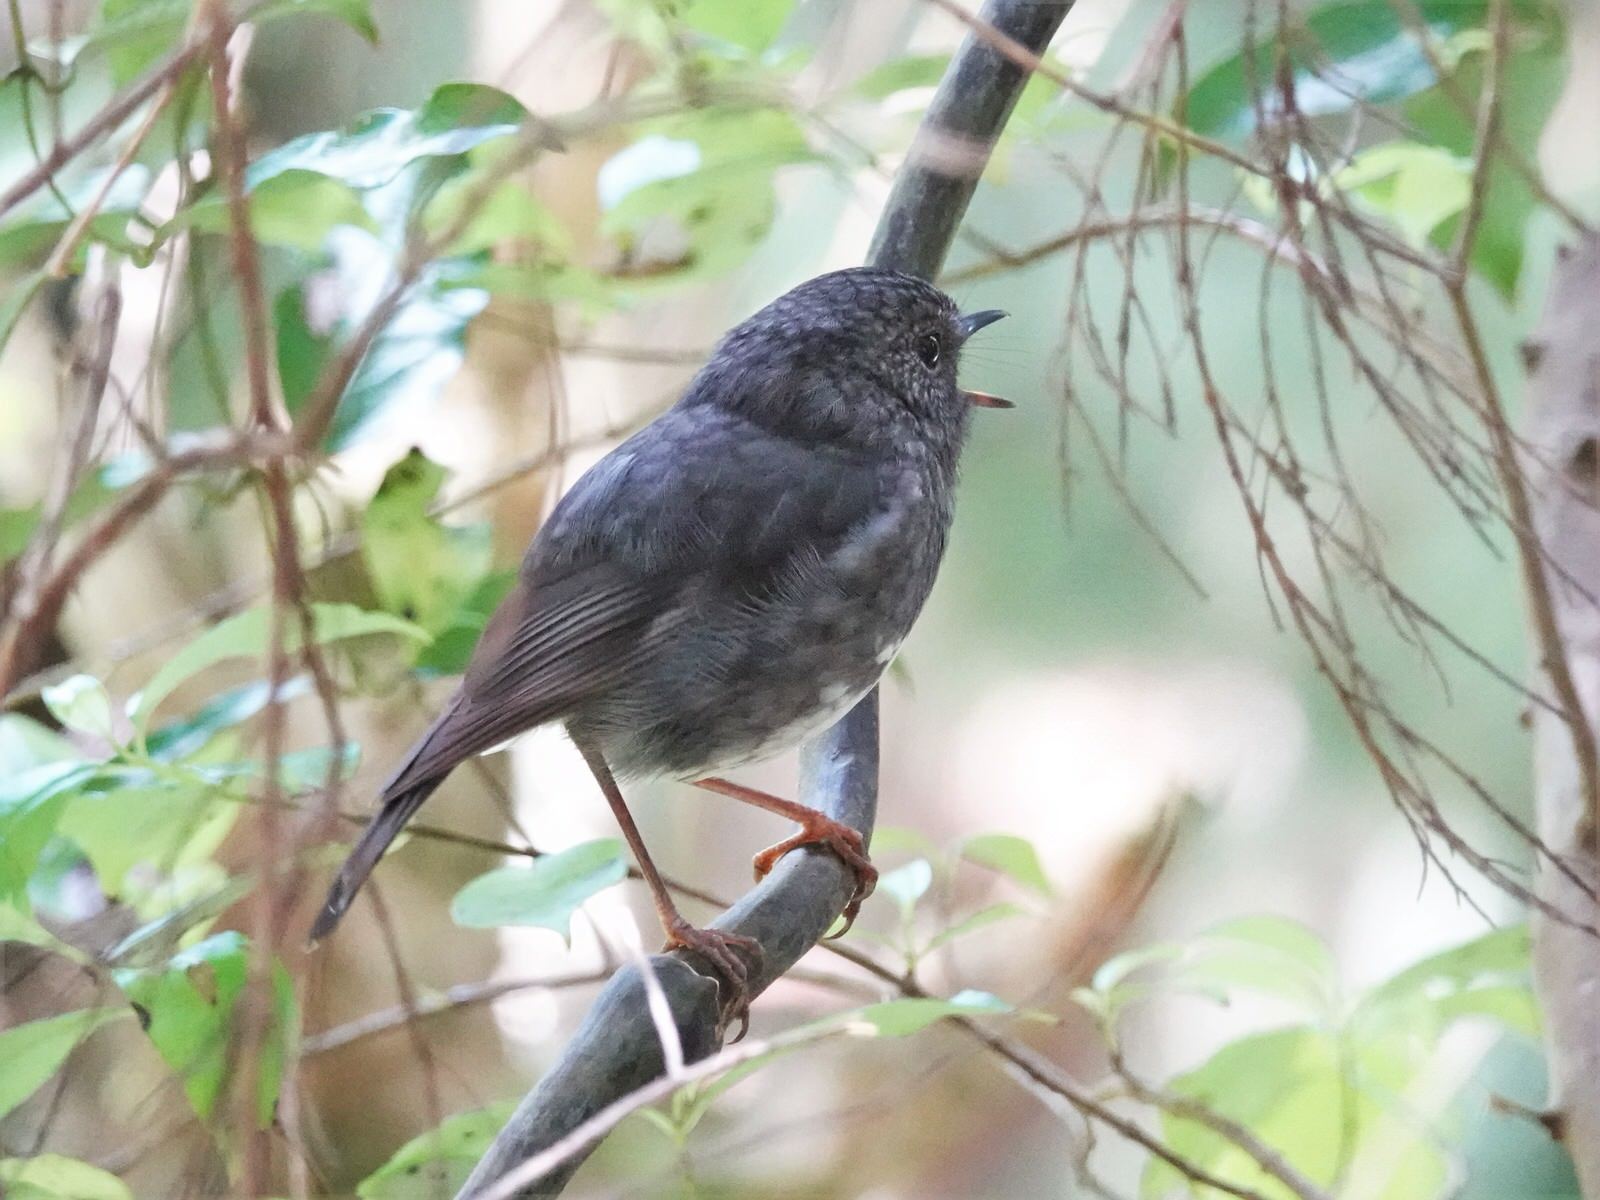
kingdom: Animalia
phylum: Chordata
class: Aves
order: Passeriformes
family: Petroicidae
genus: Petroica
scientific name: Petroica australis
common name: New zealand robin
